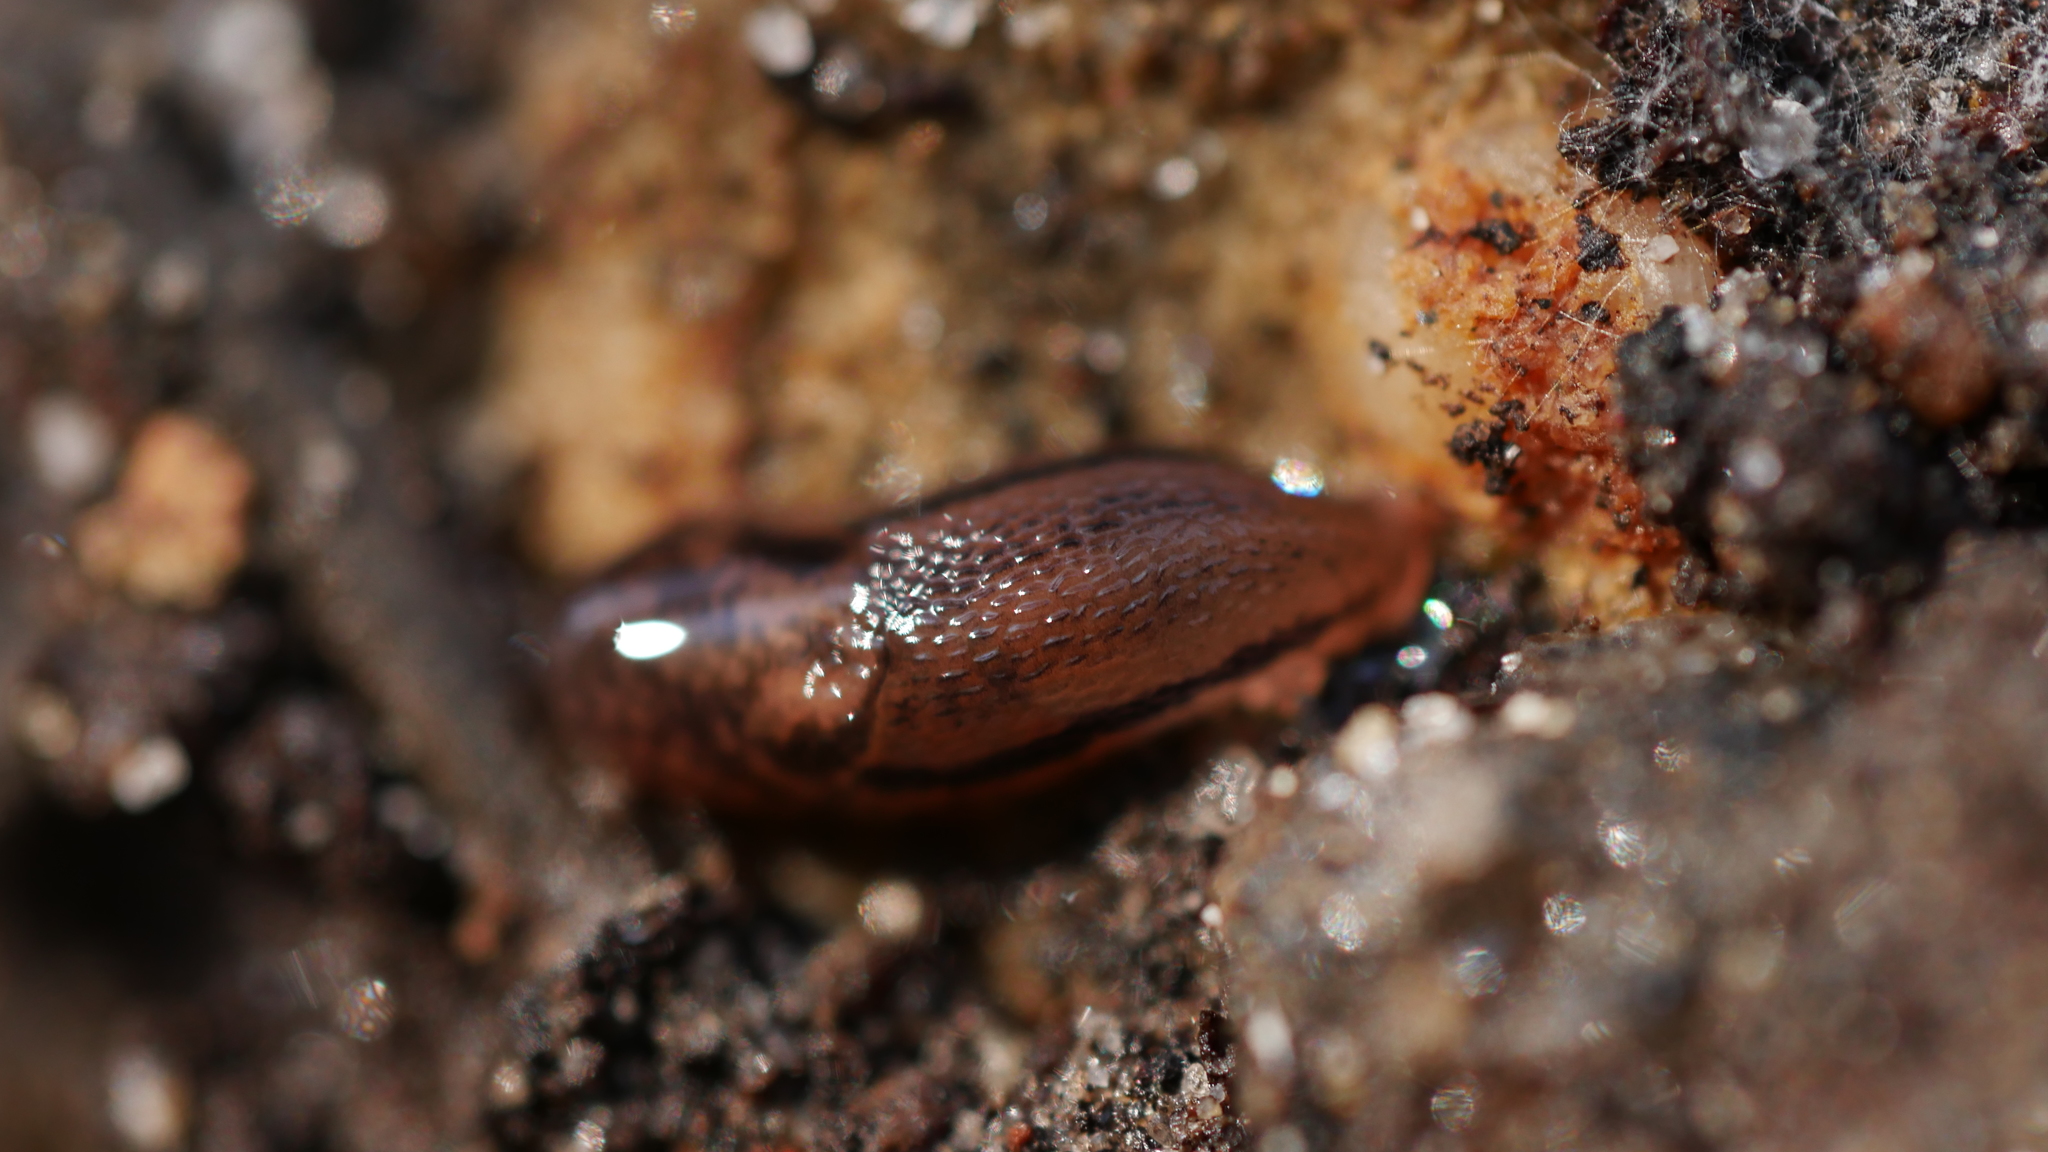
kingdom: Animalia
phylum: Mollusca
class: Gastropoda
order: Stylommatophora
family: Limacidae
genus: Limax
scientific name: Limax maximus
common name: Great grey slug
